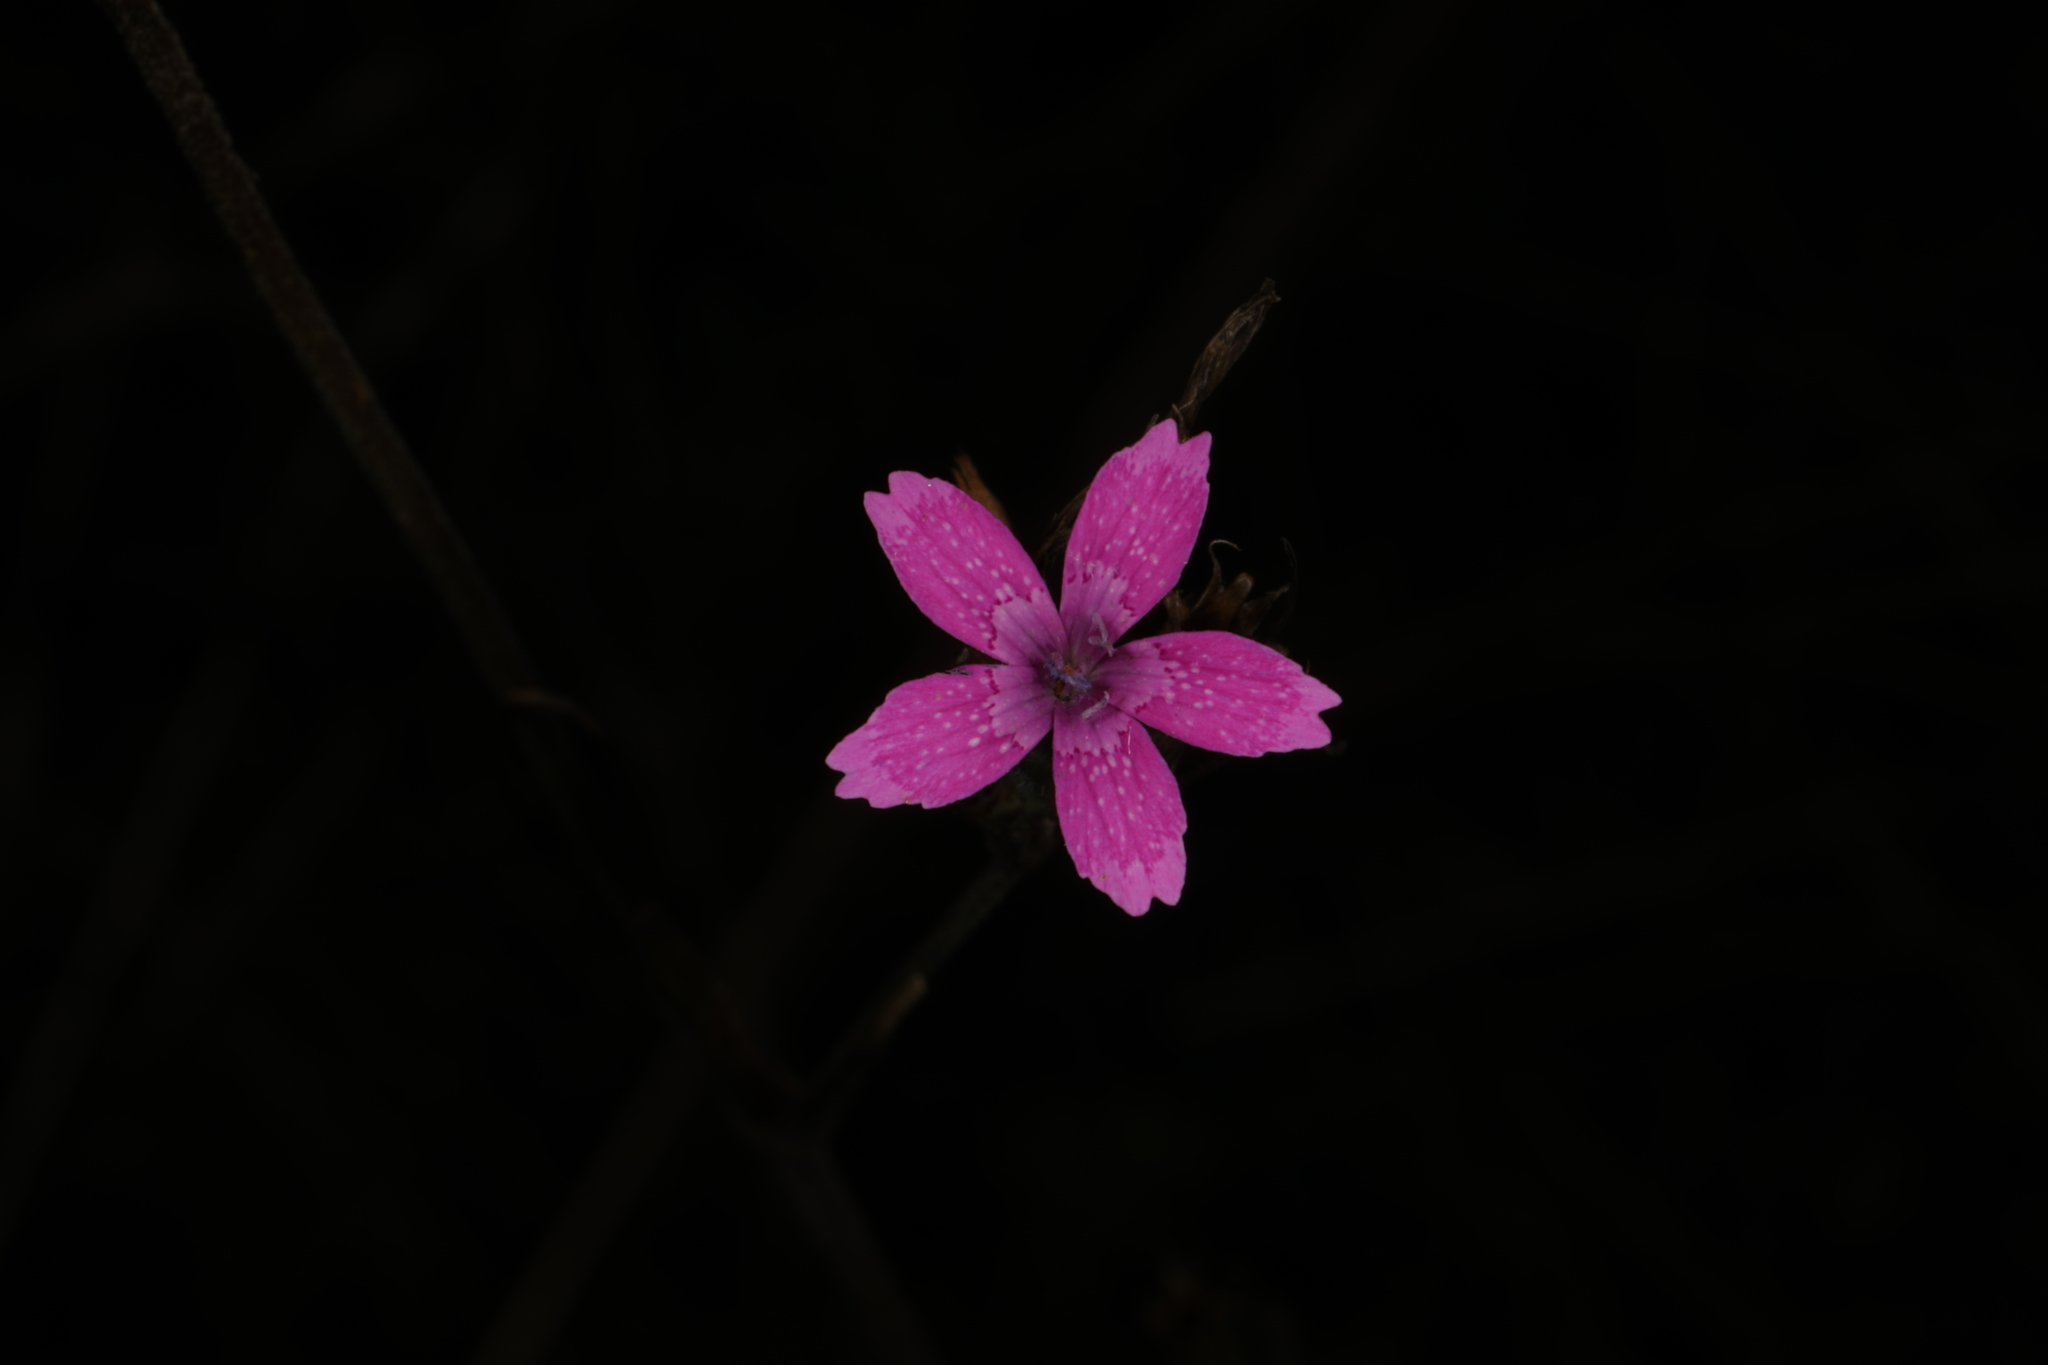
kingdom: Plantae
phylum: Tracheophyta
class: Magnoliopsida
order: Caryophyllales
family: Caryophyllaceae
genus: Dianthus
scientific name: Dianthus armeria
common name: Deptford pink
